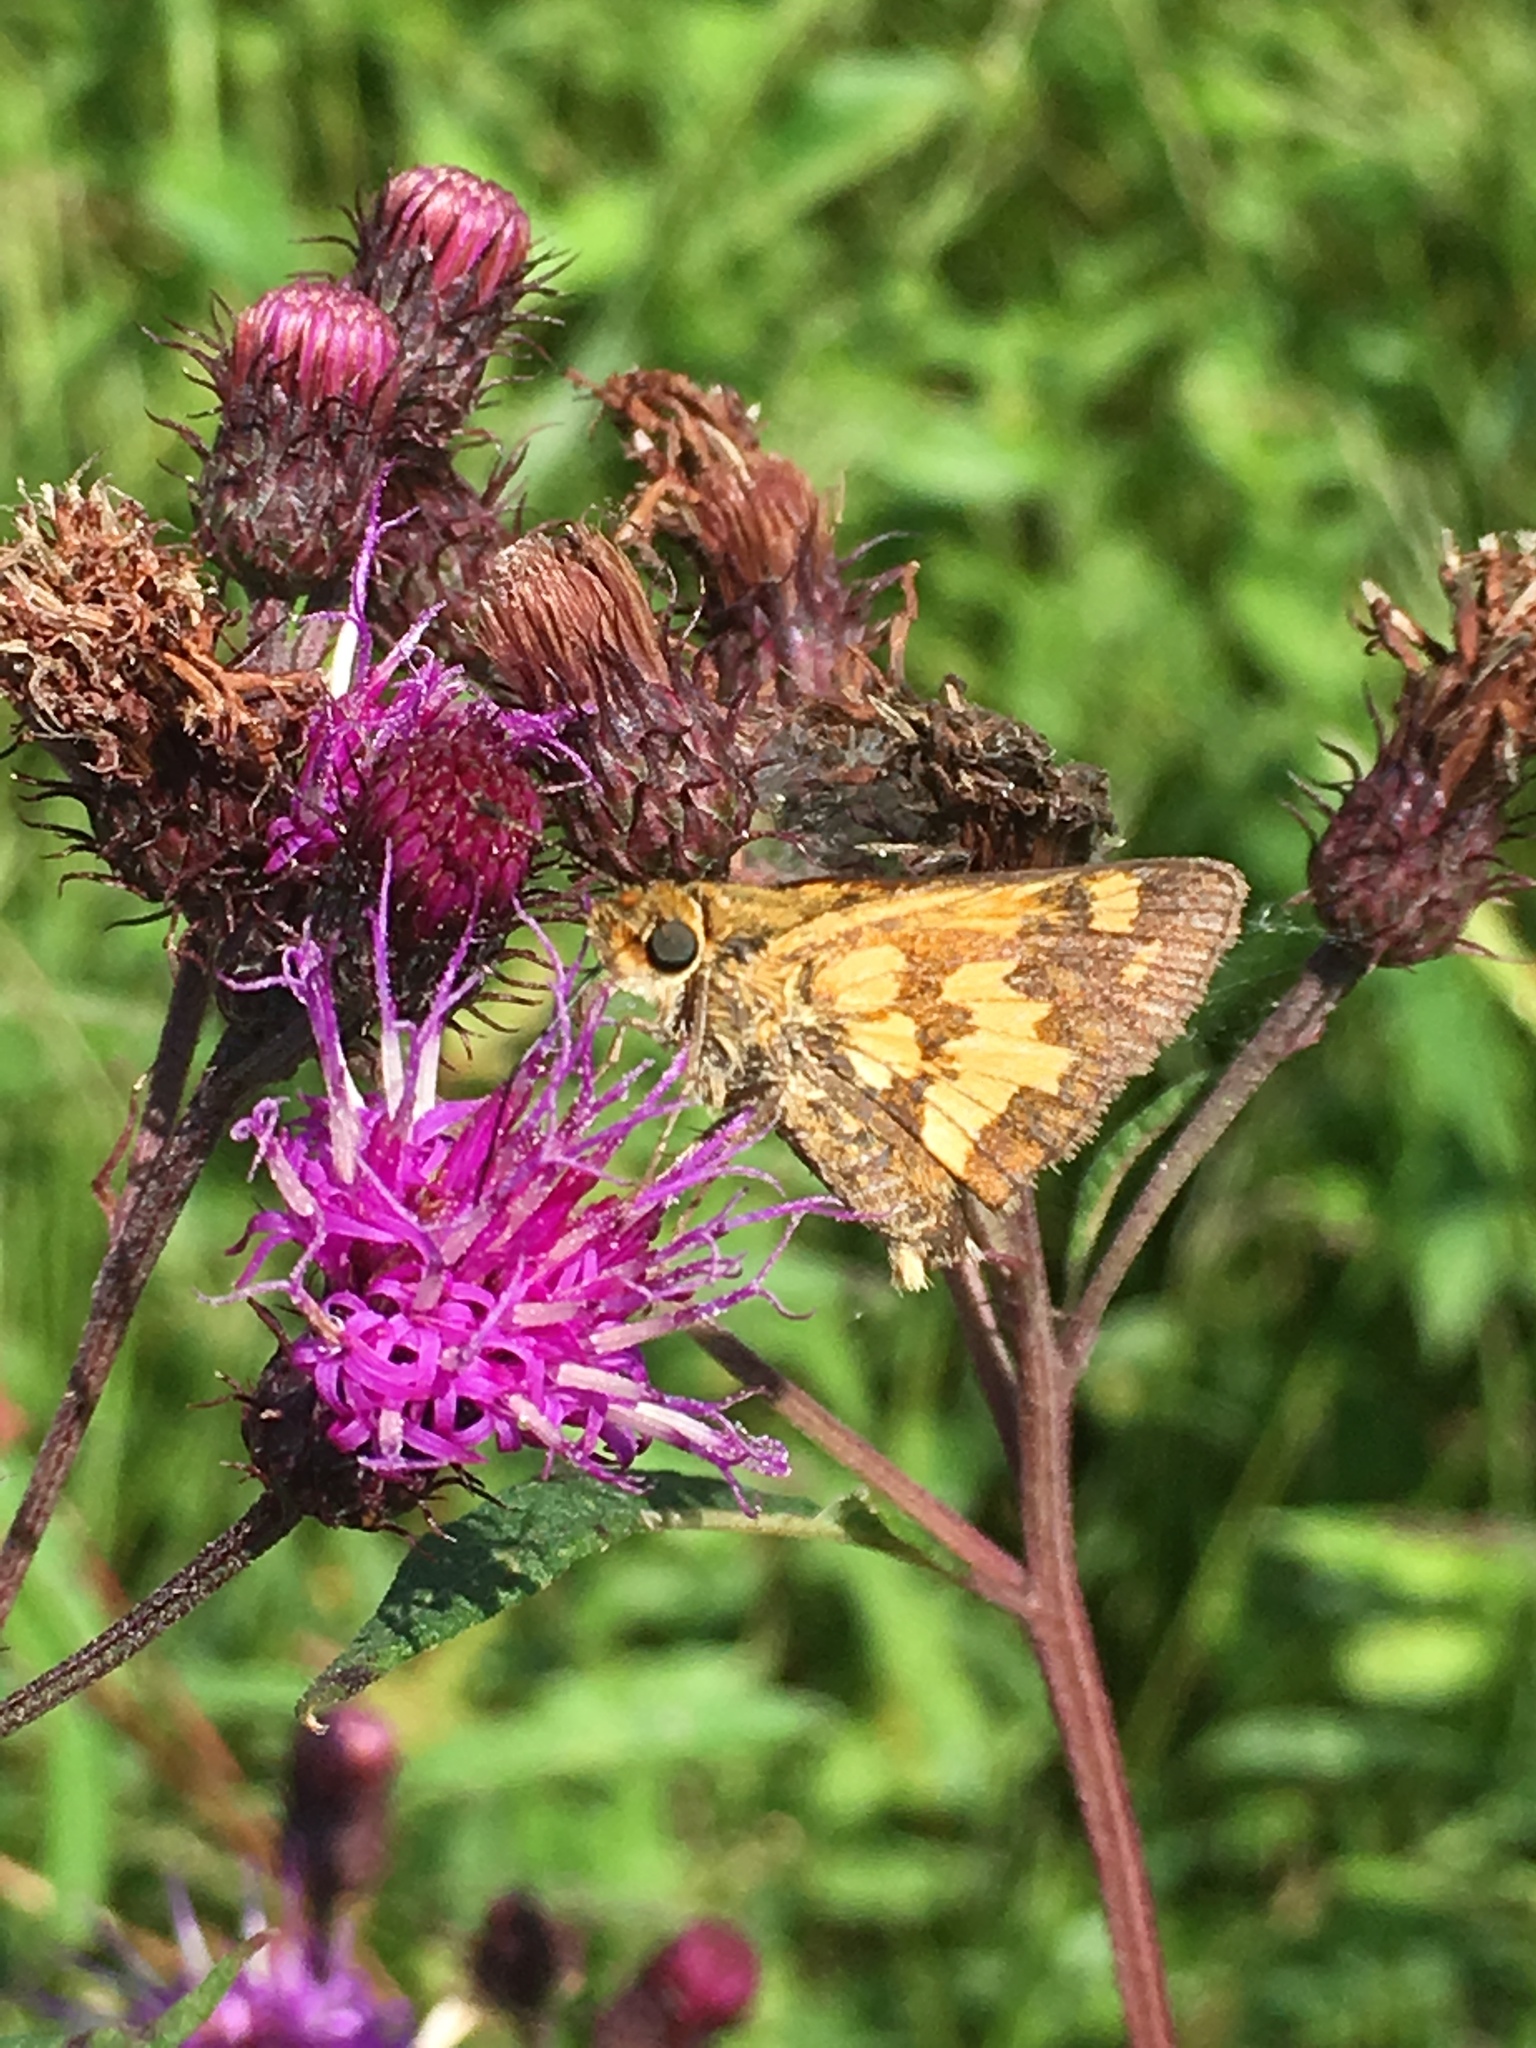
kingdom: Animalia
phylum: Arthropoda
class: Insecta
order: Lepidoptera
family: Hesperiidae
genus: Polites
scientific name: Polites coras
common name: Peck's skipper
